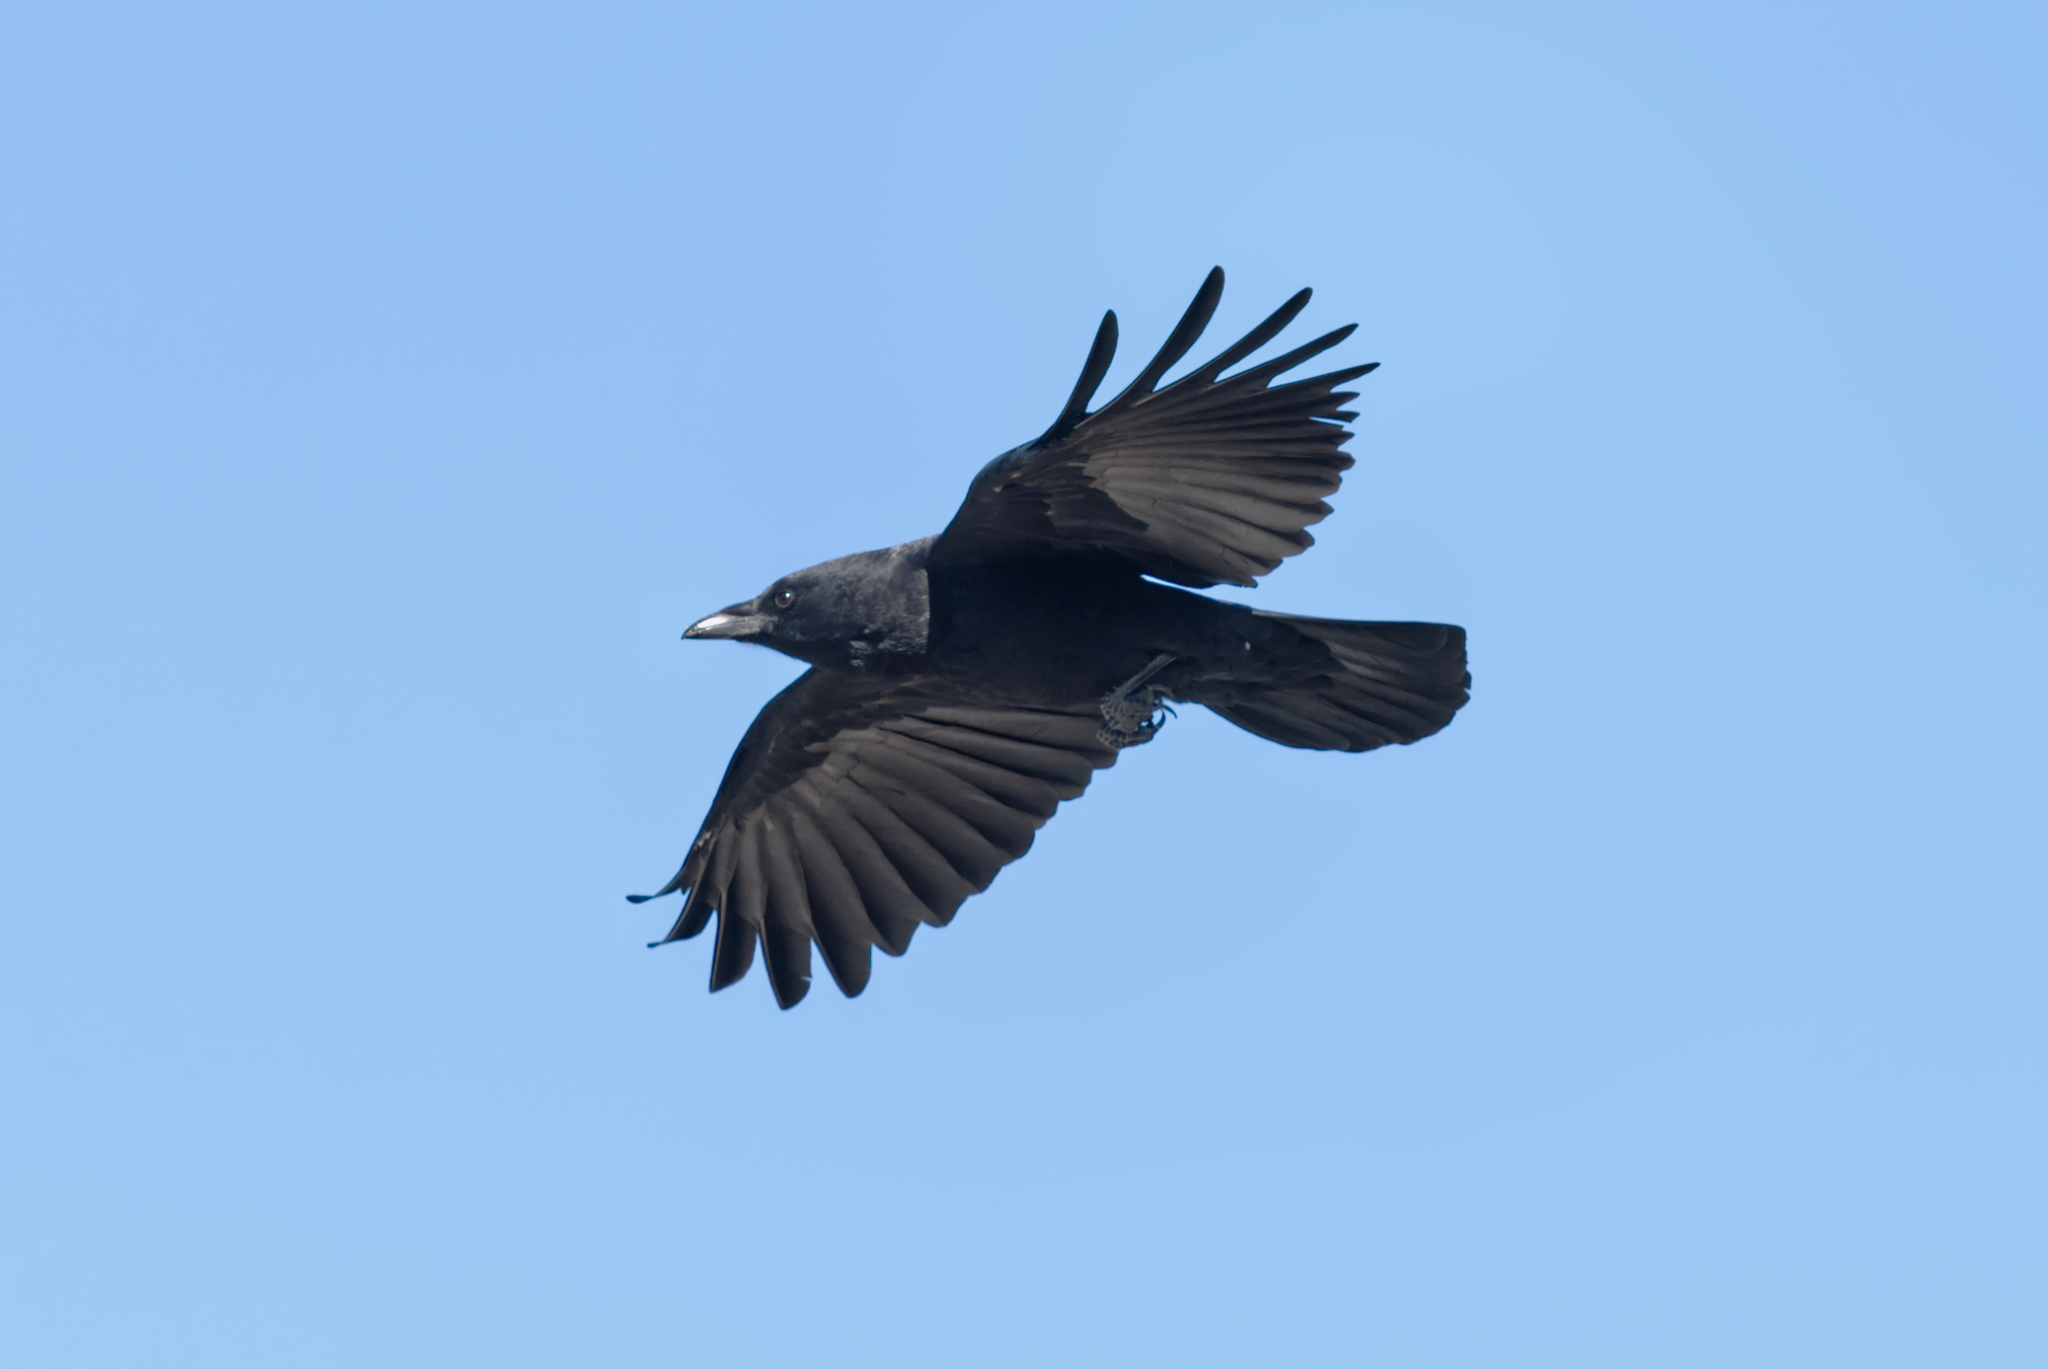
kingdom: Animalia
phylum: Chordata
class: Aves
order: Passeriformes
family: Corvidae
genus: Corvus
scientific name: Corvus brachyrhynchos
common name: American crow
